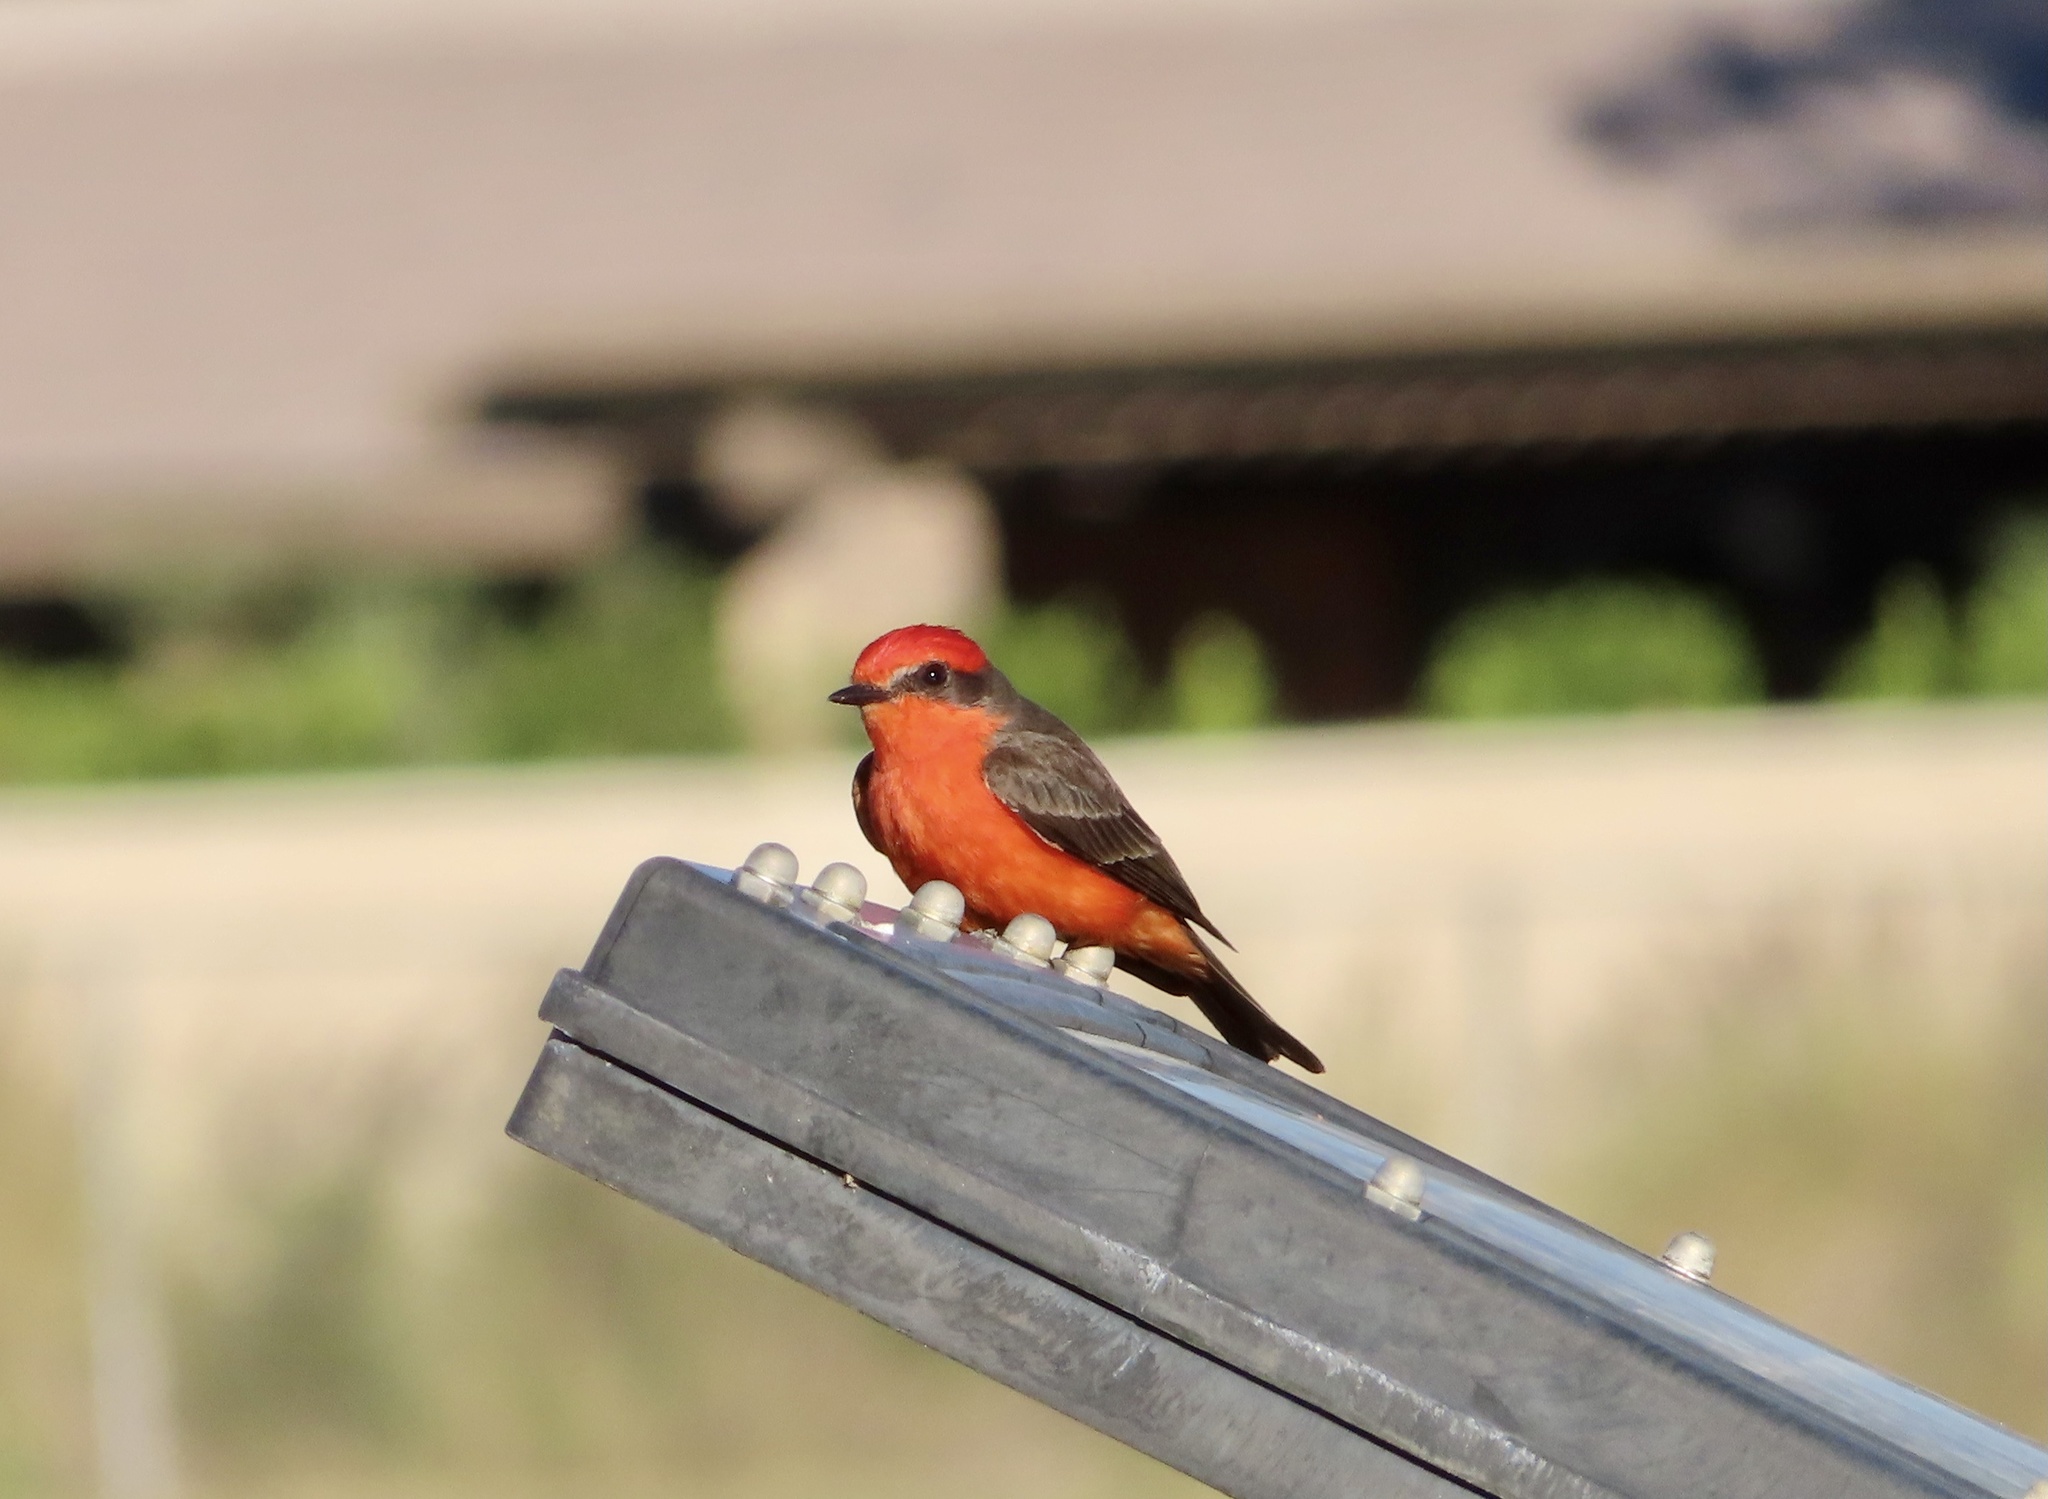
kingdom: Animalia
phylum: Chordata
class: Aves
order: Passeriformes
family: Tyrannidae
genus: Pyrocephalus
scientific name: Pyrocephalus rubinus
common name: Vermilion flycatcher
